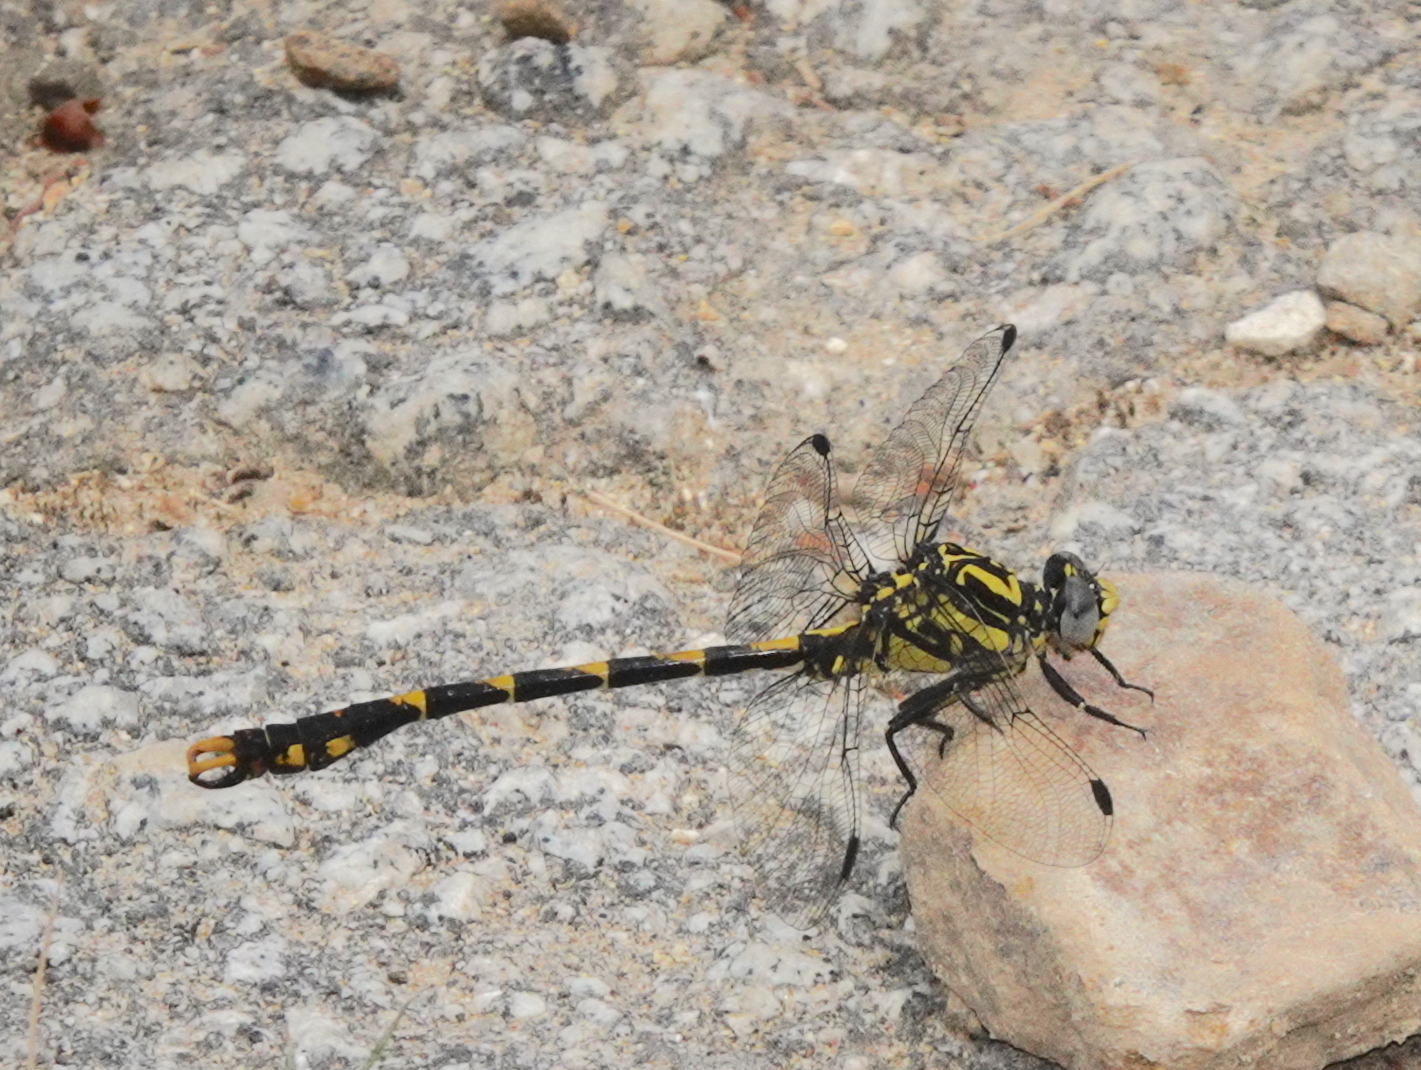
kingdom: Animalia
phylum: Arthropoda
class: Insecta
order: Odonata
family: Gomphidae
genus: Onychogomphus
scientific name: Onychogomphus uncatus
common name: Large pincertail
